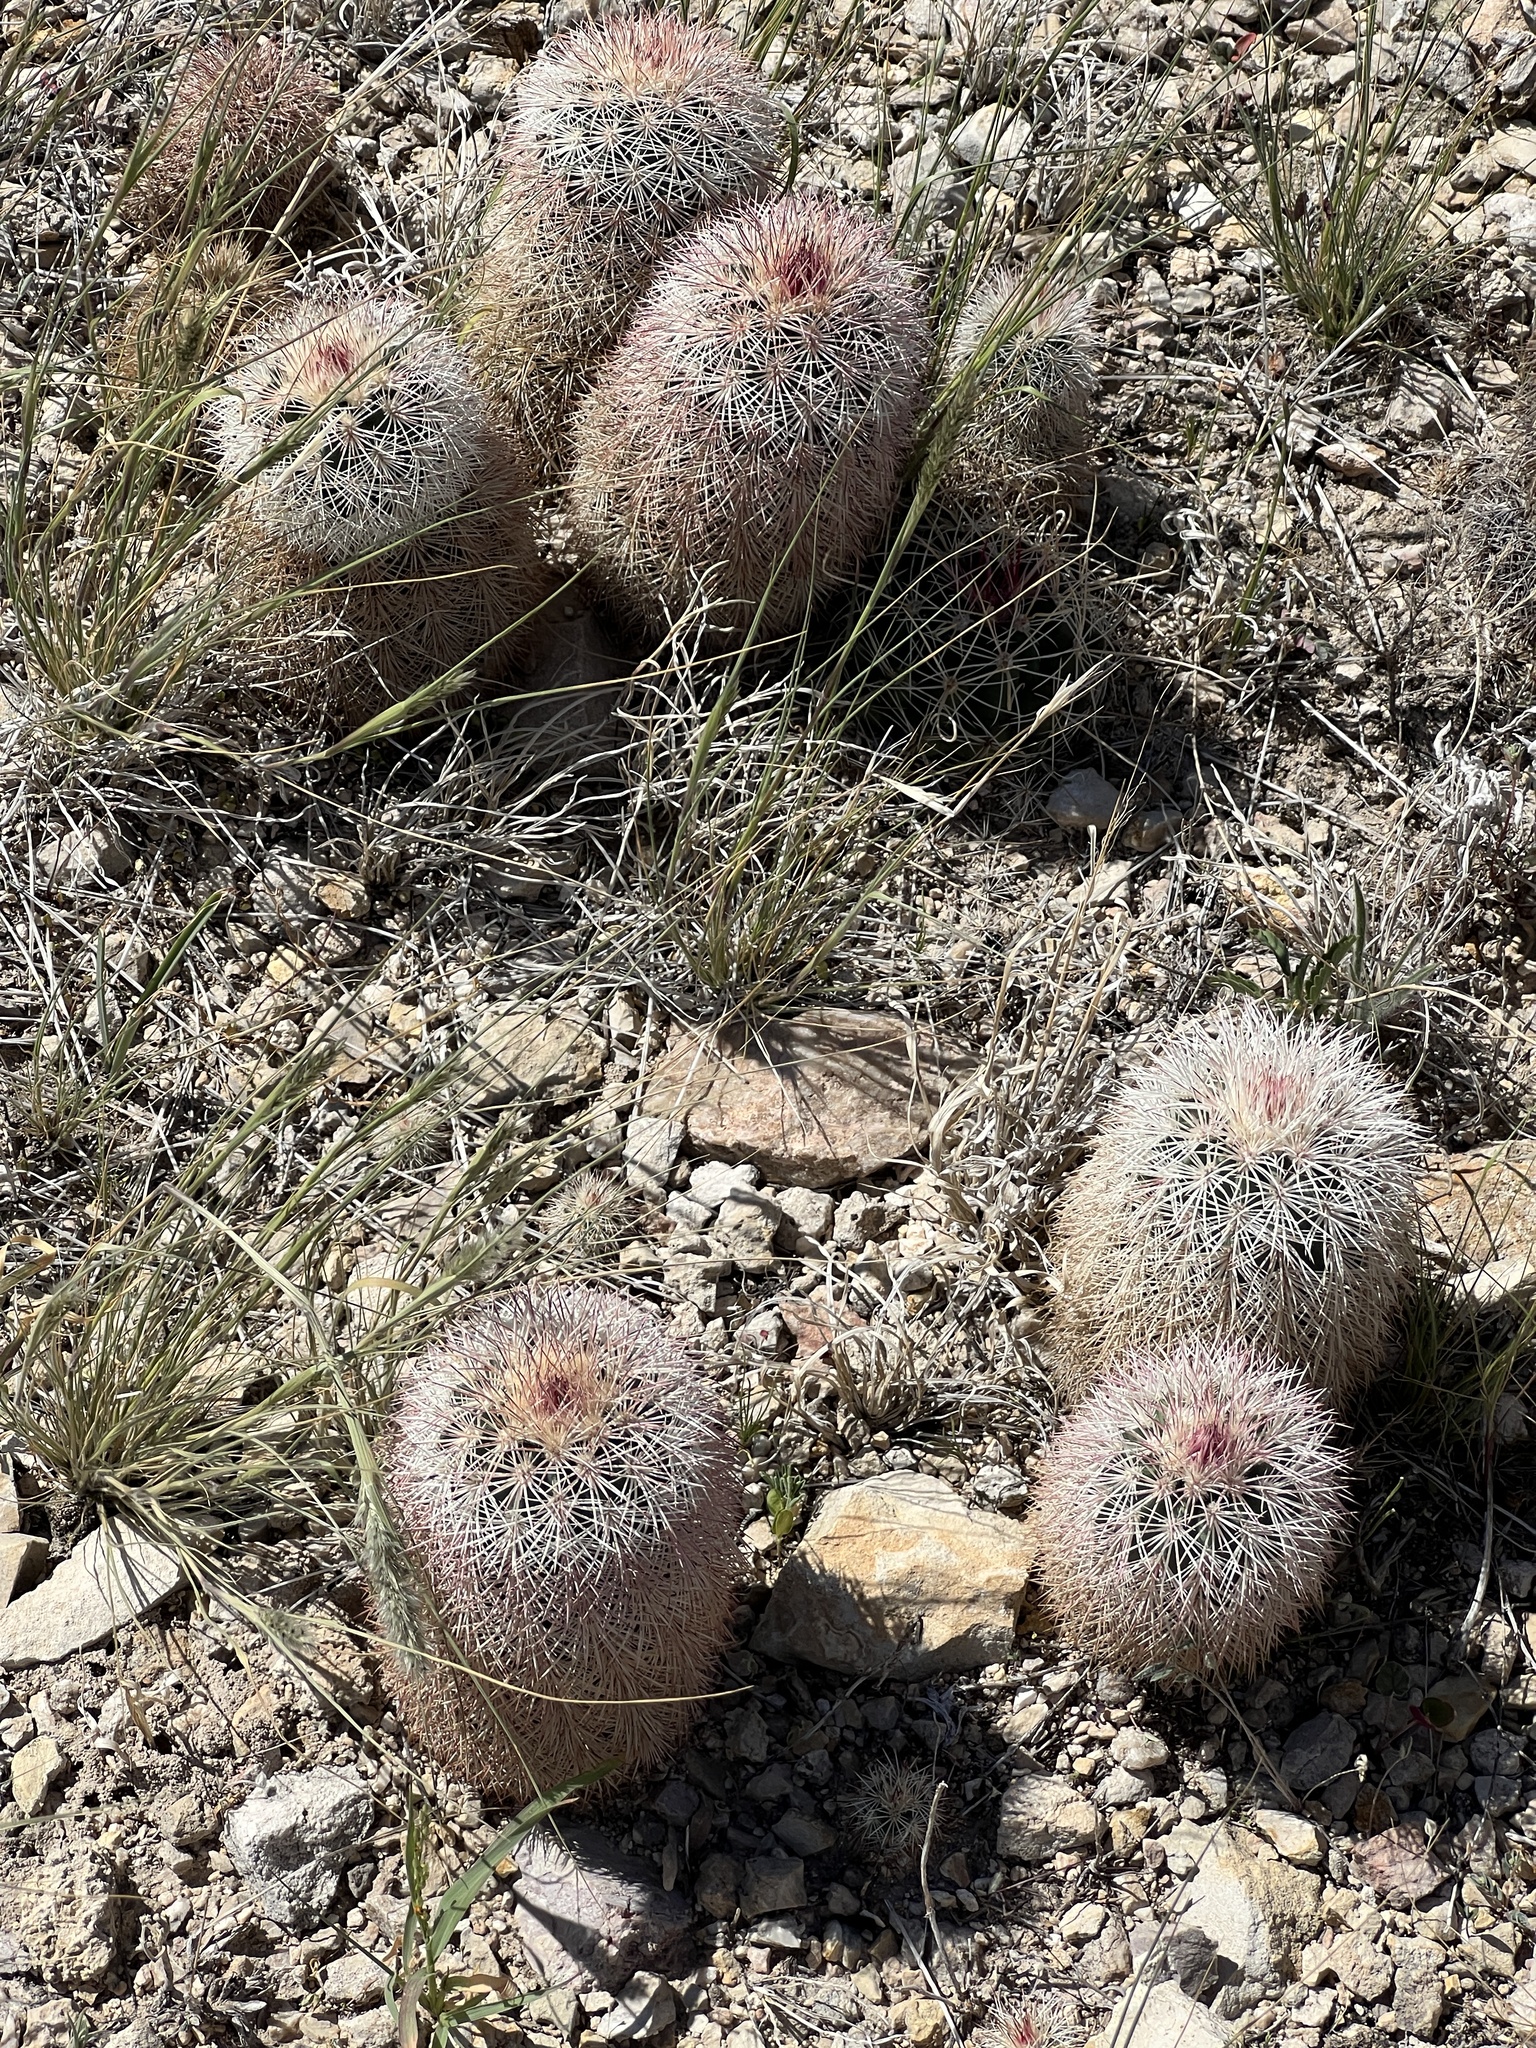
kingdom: Plantae
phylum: Tracheophyta
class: Magnoliopsida
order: Caryophyllales
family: Cactaceae
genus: Echinocereus
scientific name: Echinocereus dasyacanthus
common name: Spiny hedgehog cactus
